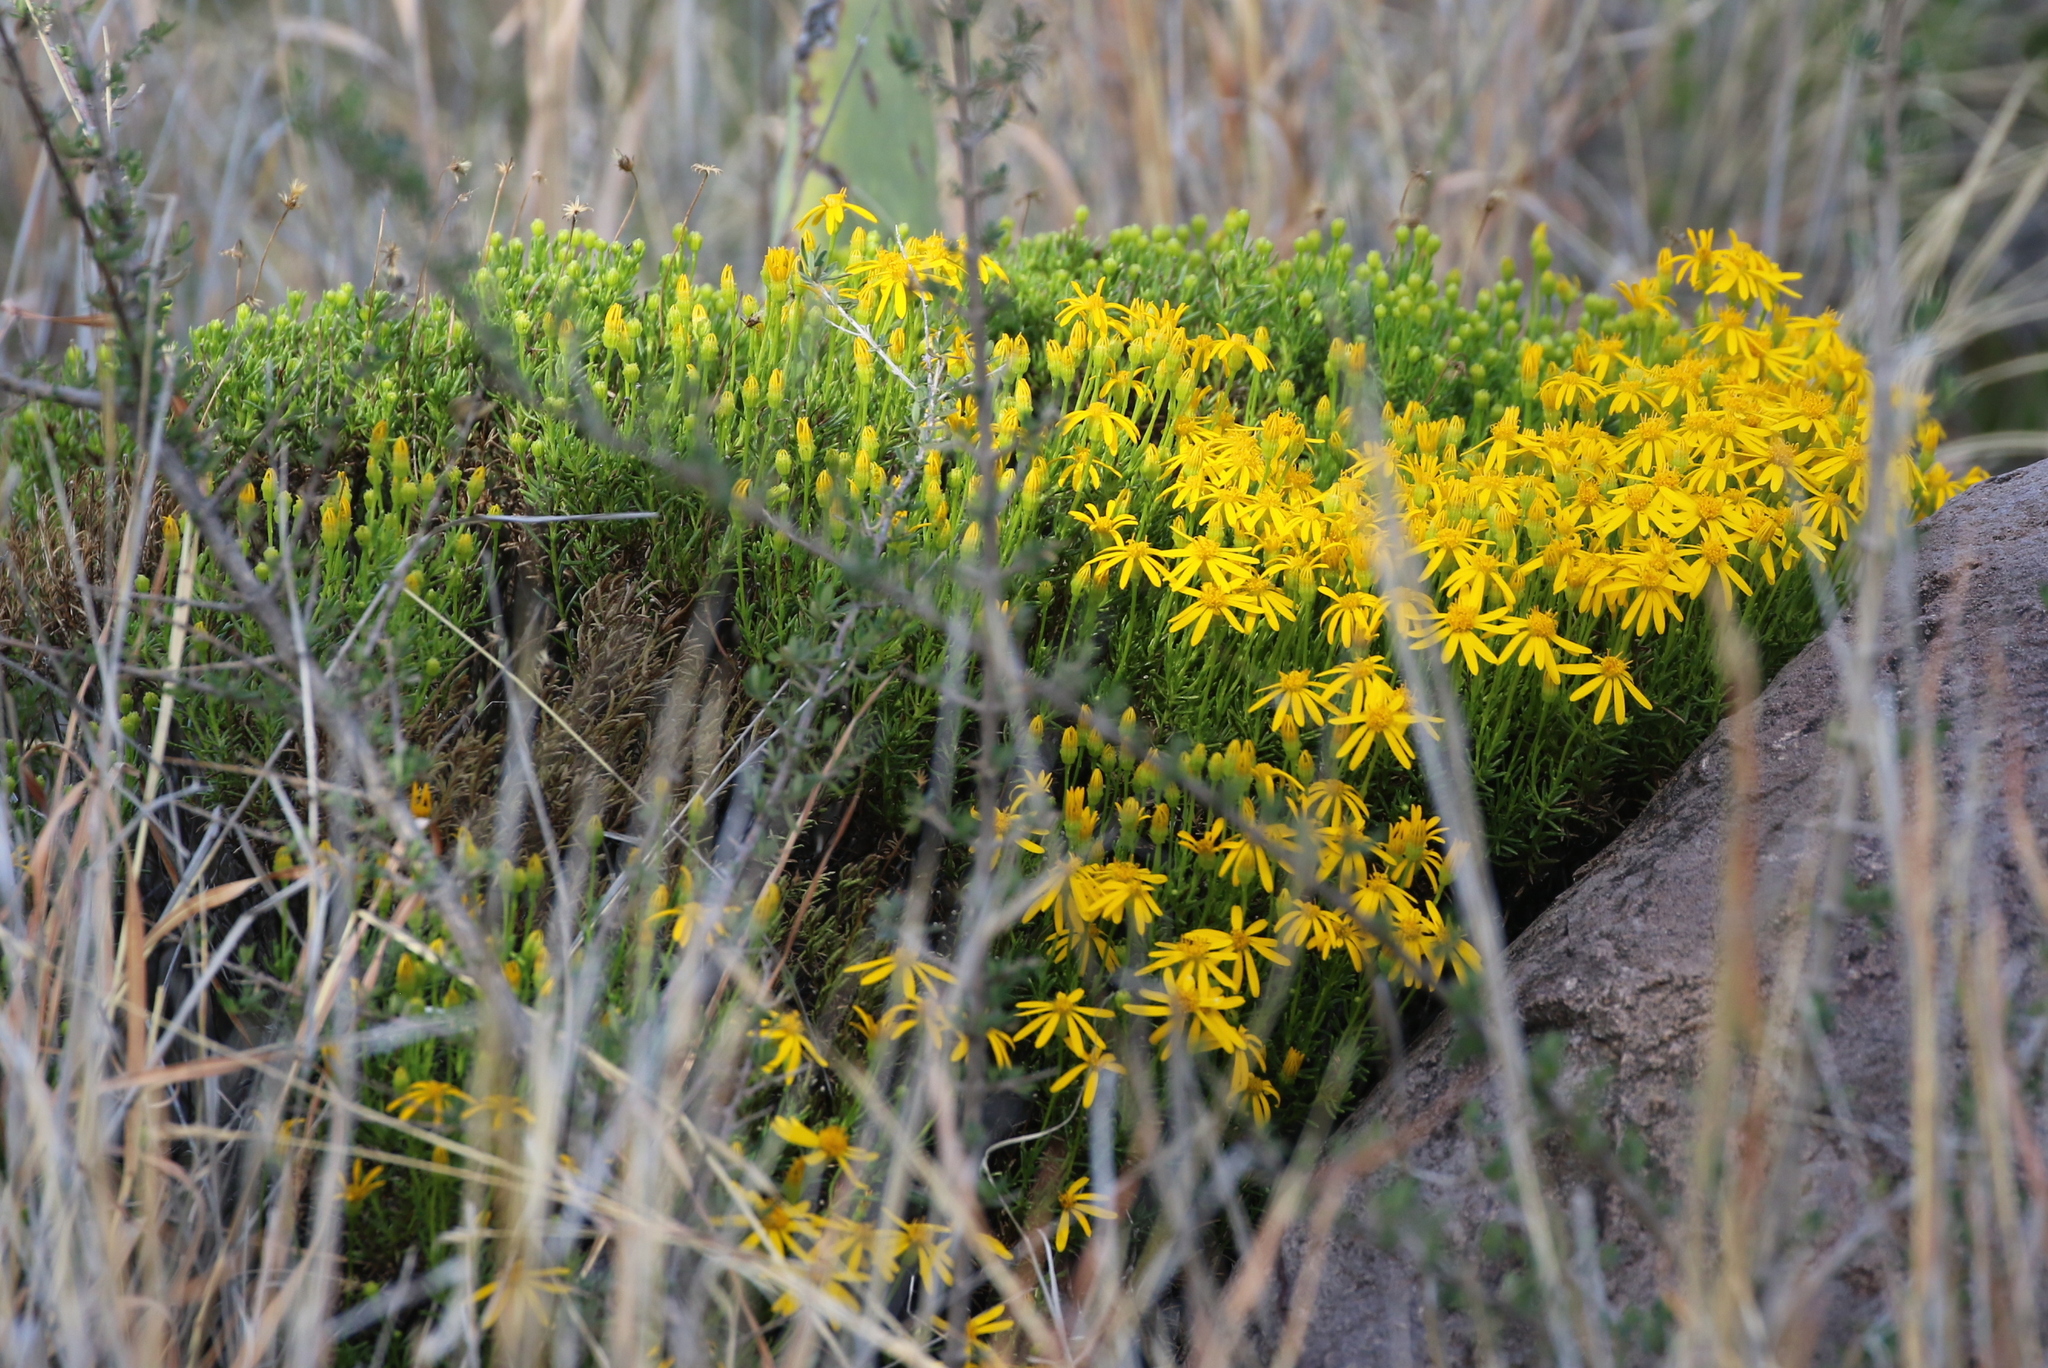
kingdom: Plantae
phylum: Tracheophyta
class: Magnoliopsida
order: Asterales
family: Asteraceae
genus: Chrysactinia
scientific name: Chrysactinia mexicana
